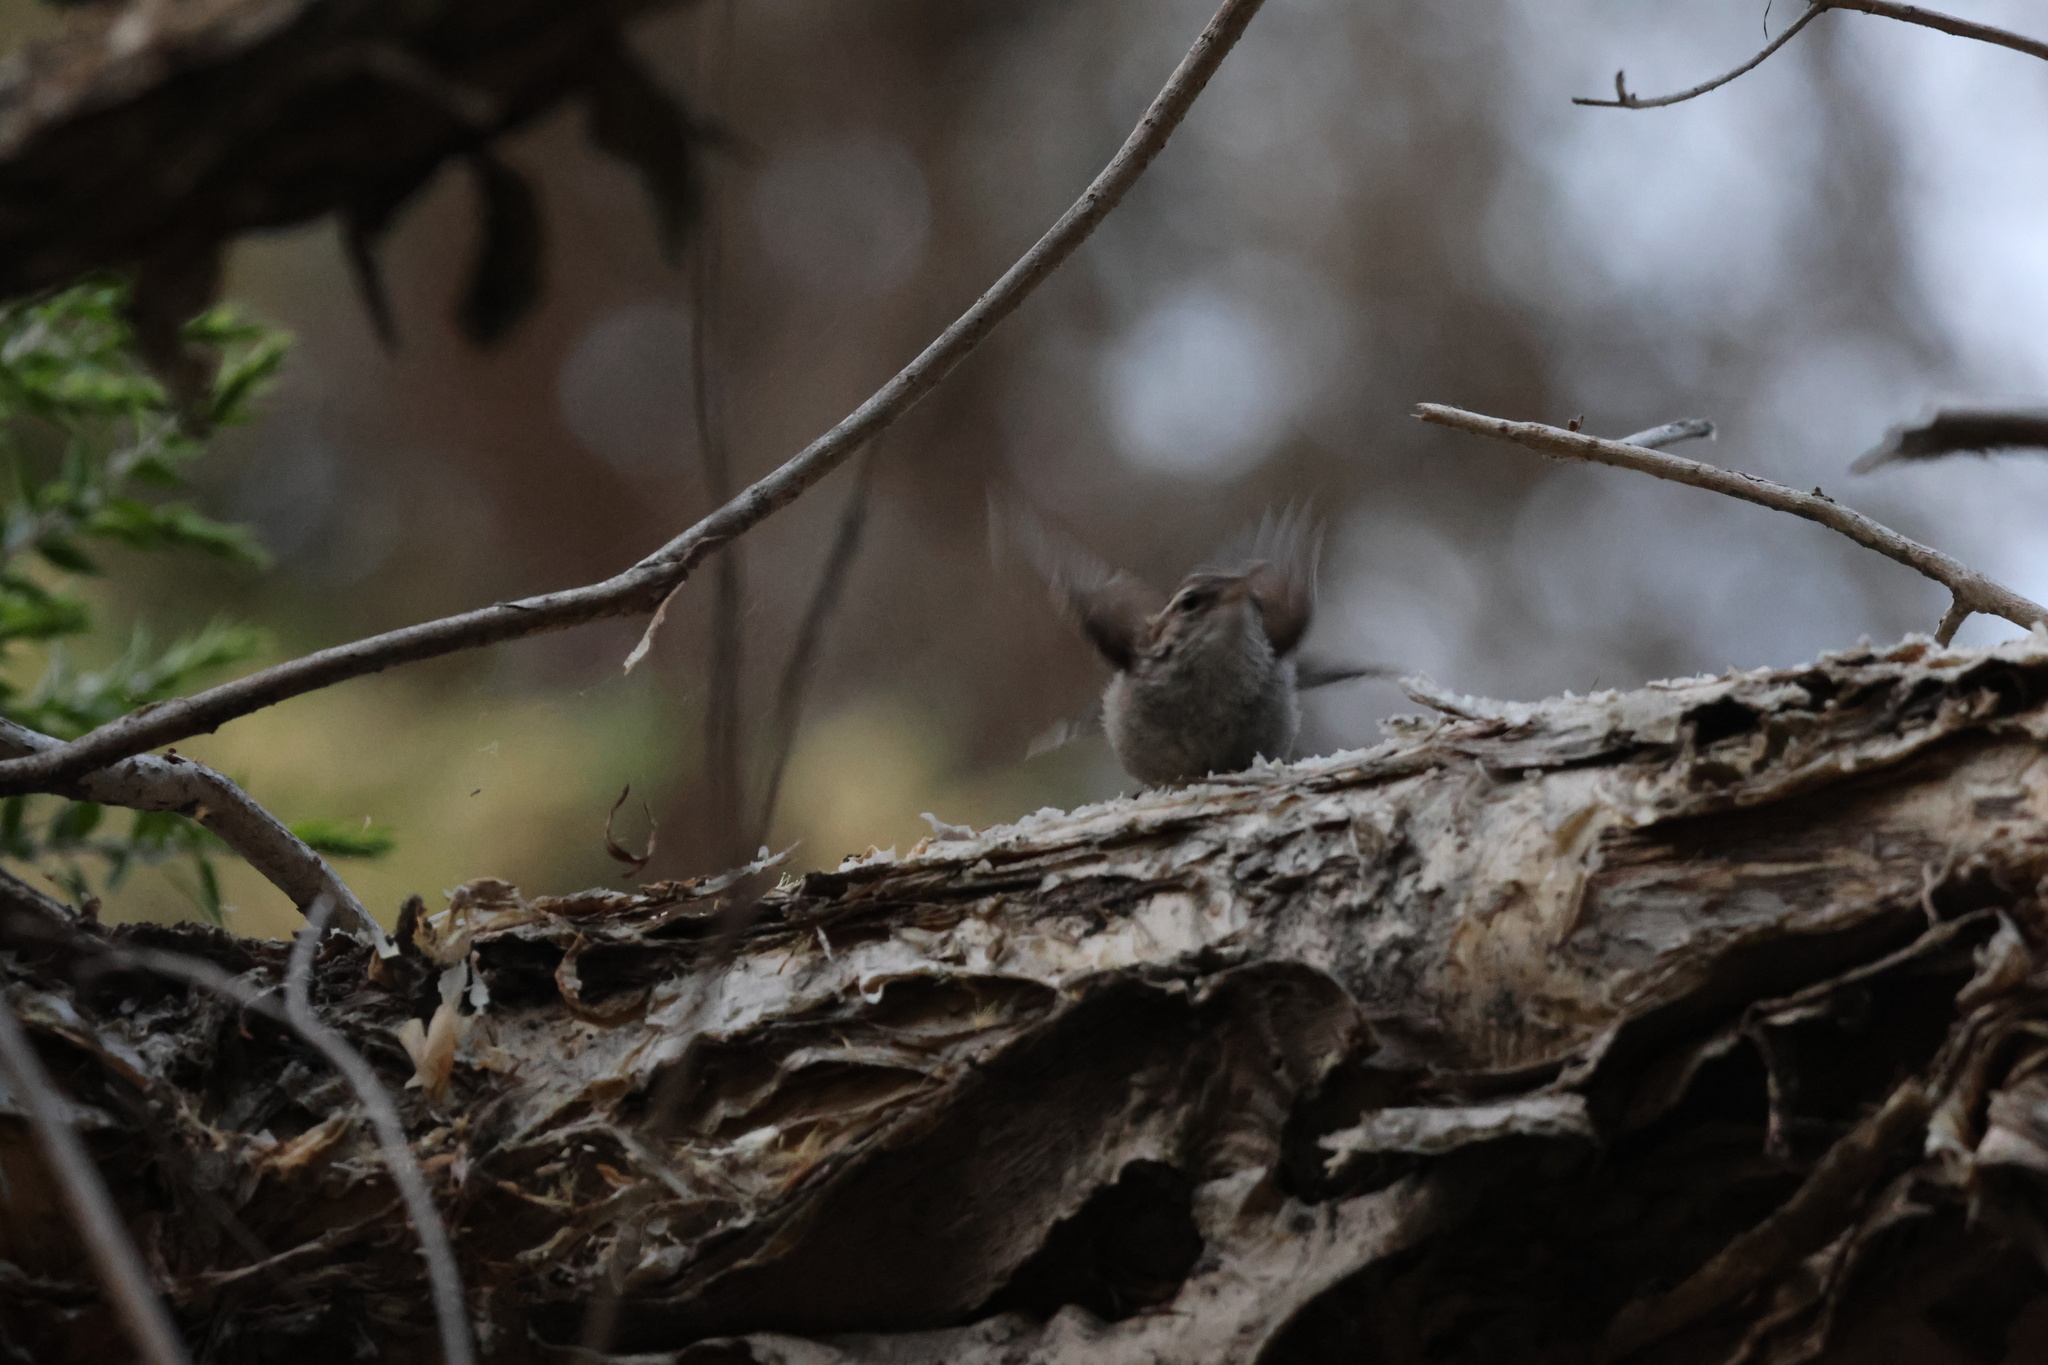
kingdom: Animalia
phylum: Chordata
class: Aves
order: Passeriformes
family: Troglodytidae
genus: Thryomanes
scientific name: Thryomanes bewickii
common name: Bewick's wren
